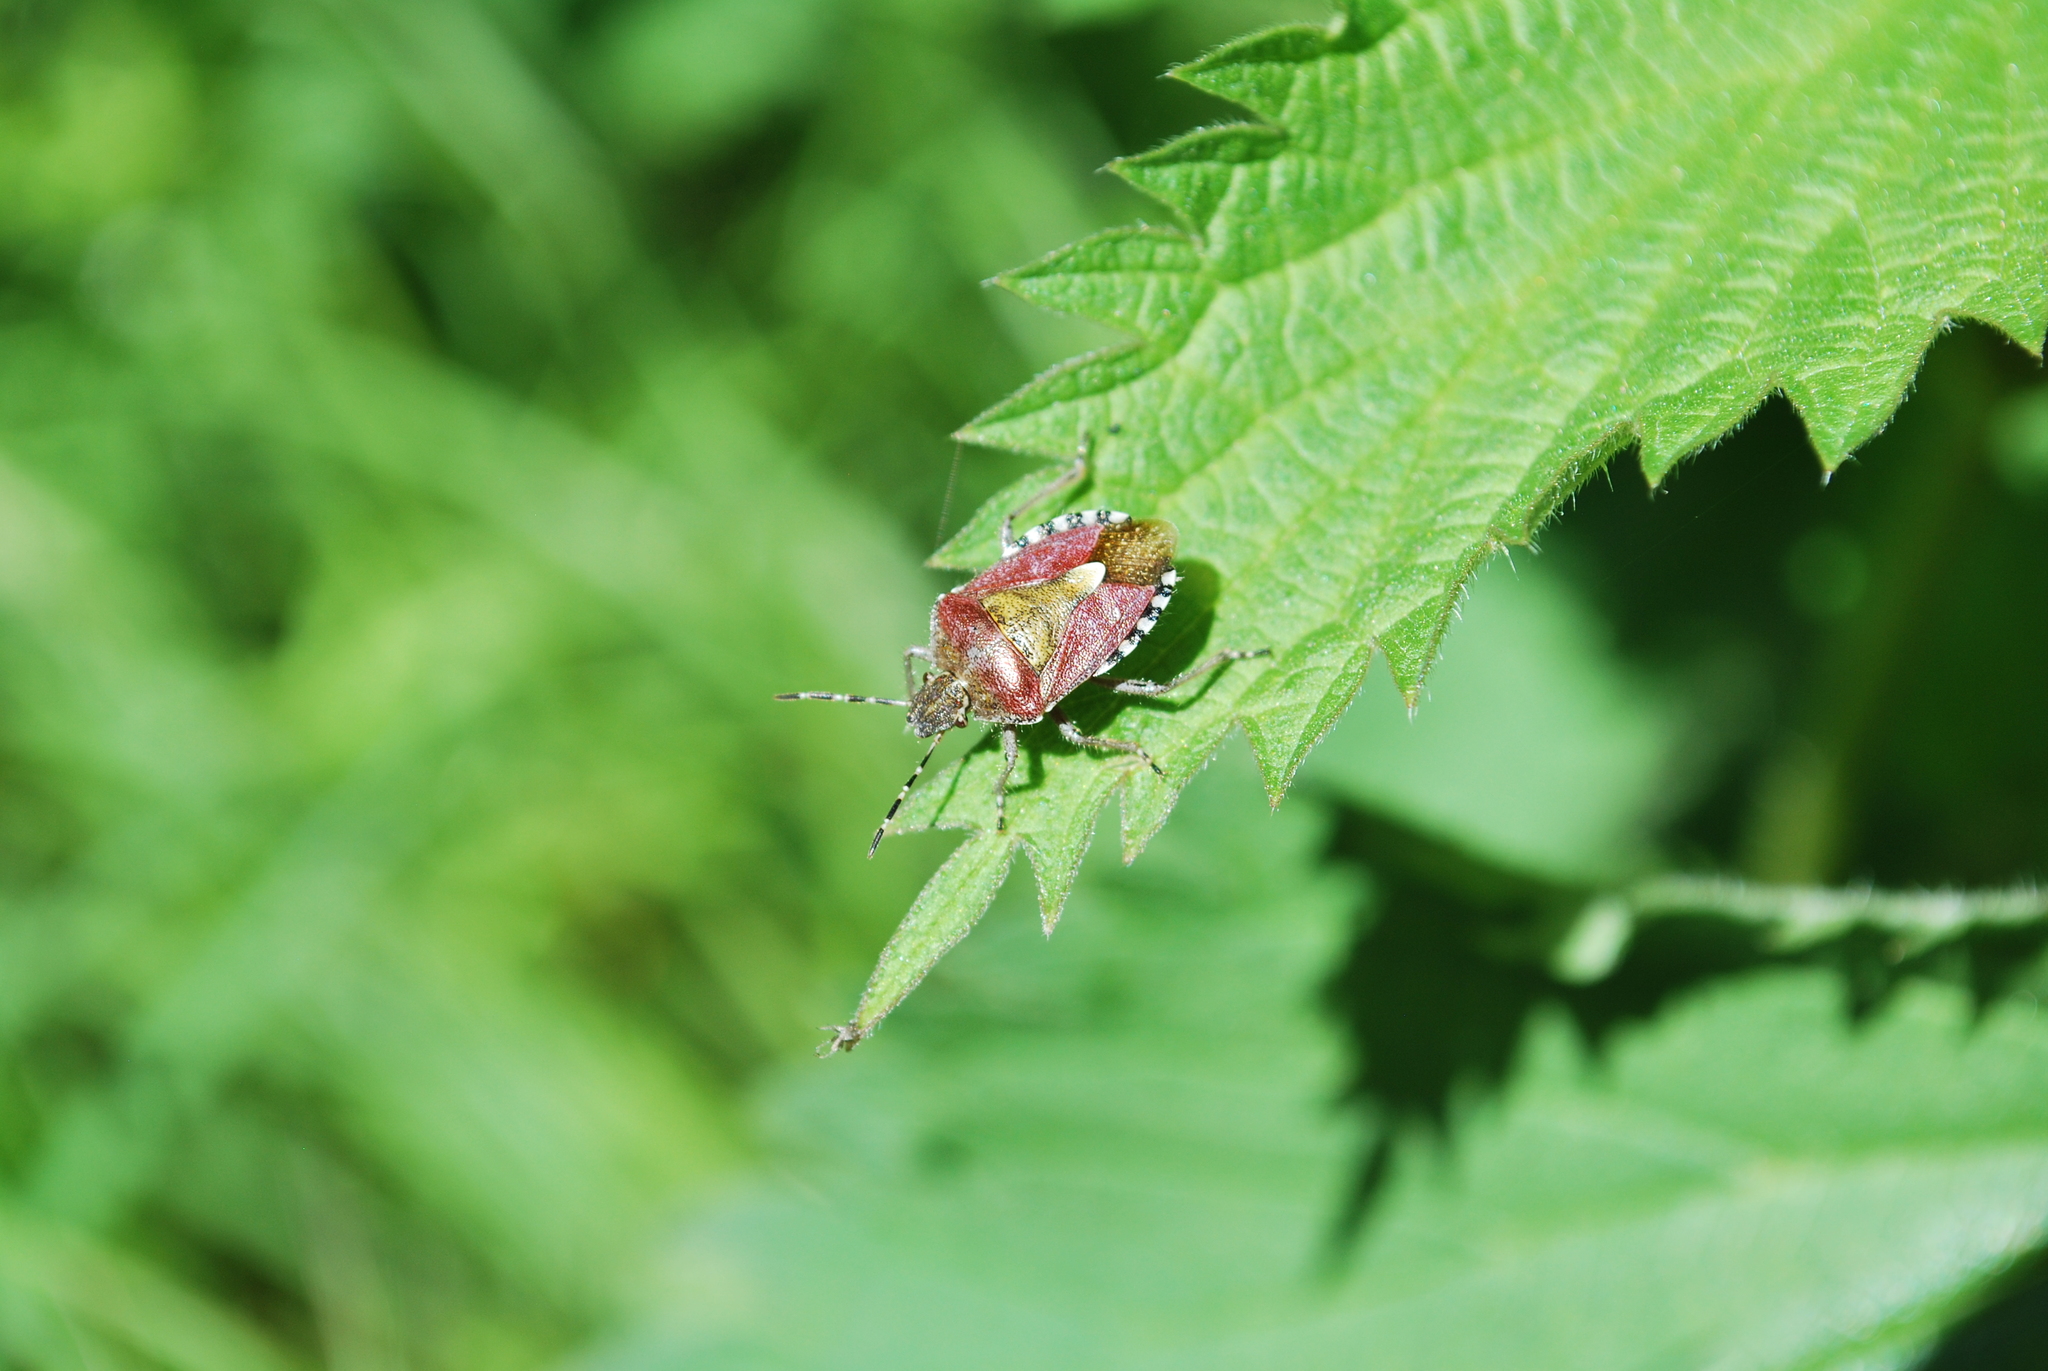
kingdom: Animalia
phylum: Arthropoda
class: Insecta
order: Hemiptera
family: Pentatomidae
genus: Dolycoris
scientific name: Dolycoris baccarum
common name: Sloe bug
